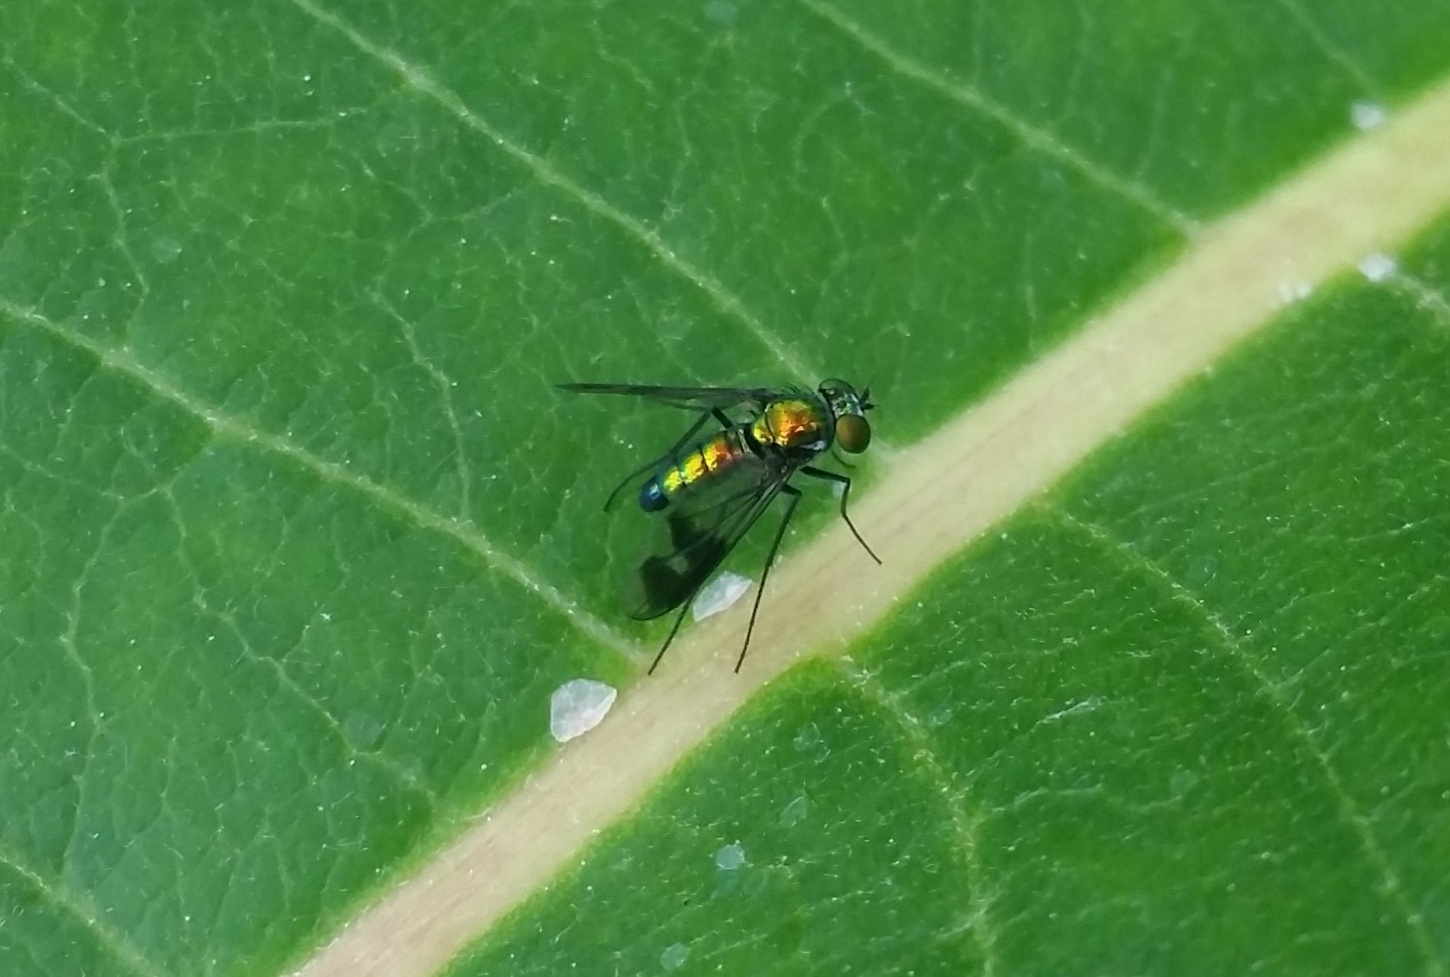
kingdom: Animalia
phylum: Arthropoda
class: Insecta
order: Diptera
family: Dolichopodidae
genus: Condylostylus
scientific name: Condylostylus patibulatus
